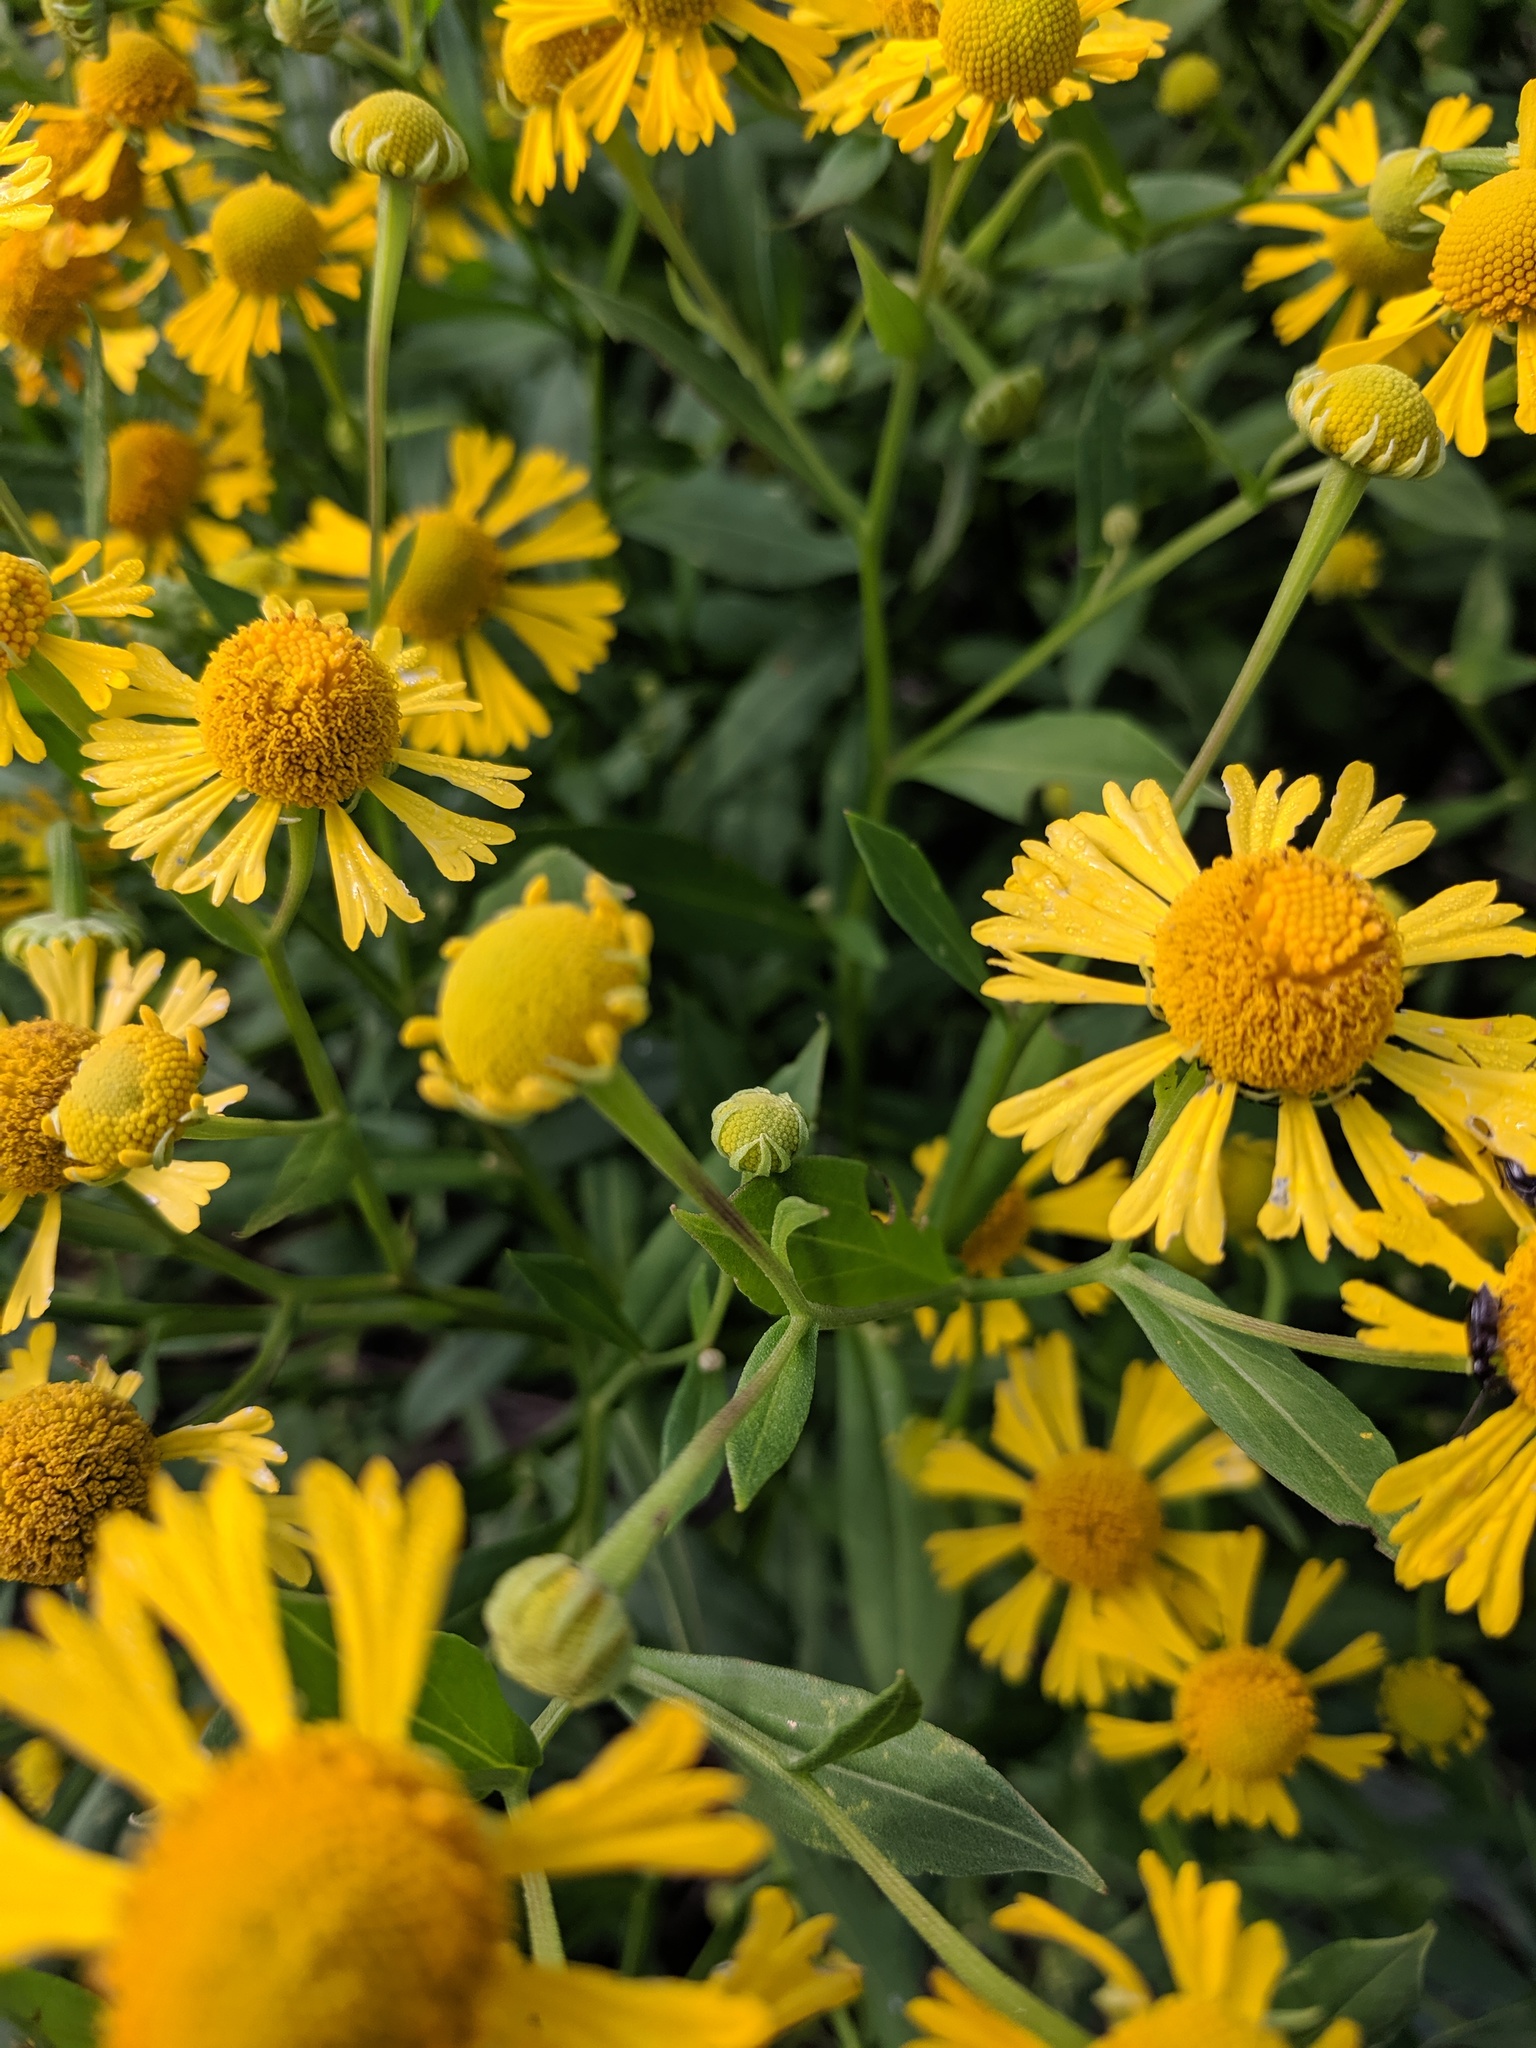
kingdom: Plantae
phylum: Tracheophyta
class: Magnoliopsida
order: Asterales
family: Asteraceae
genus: Helenium
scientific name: Helenium autumnale
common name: Sneezeweed
